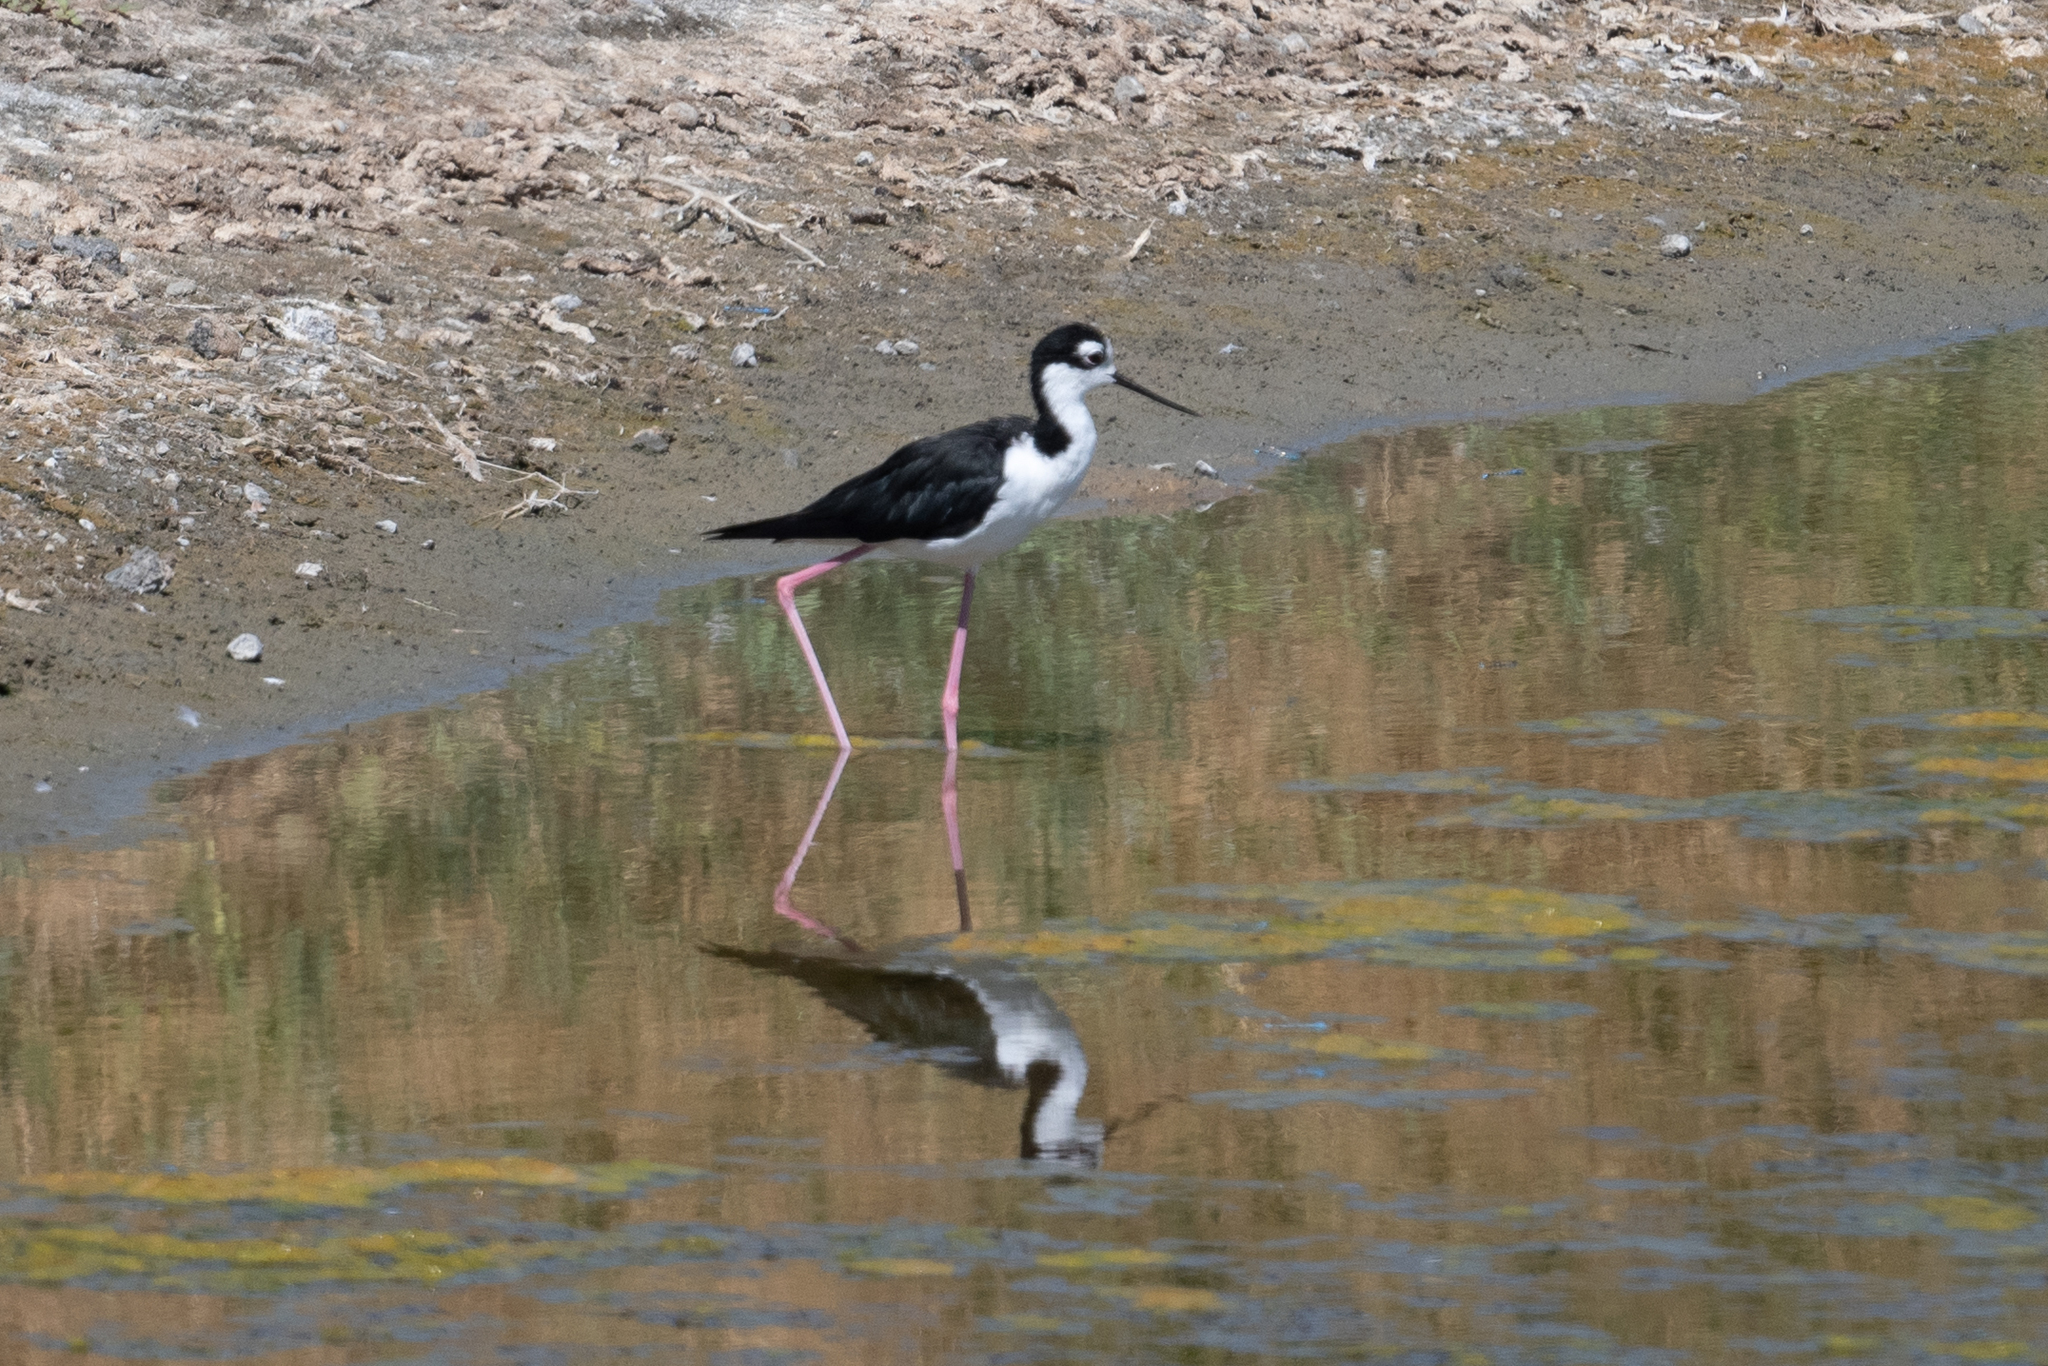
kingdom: Animalia
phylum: Chordata
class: Aves
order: Charadriiformes
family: Recurvirostridae
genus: Himantopus
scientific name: Himantopus mexicanus
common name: Black-necked stilt
